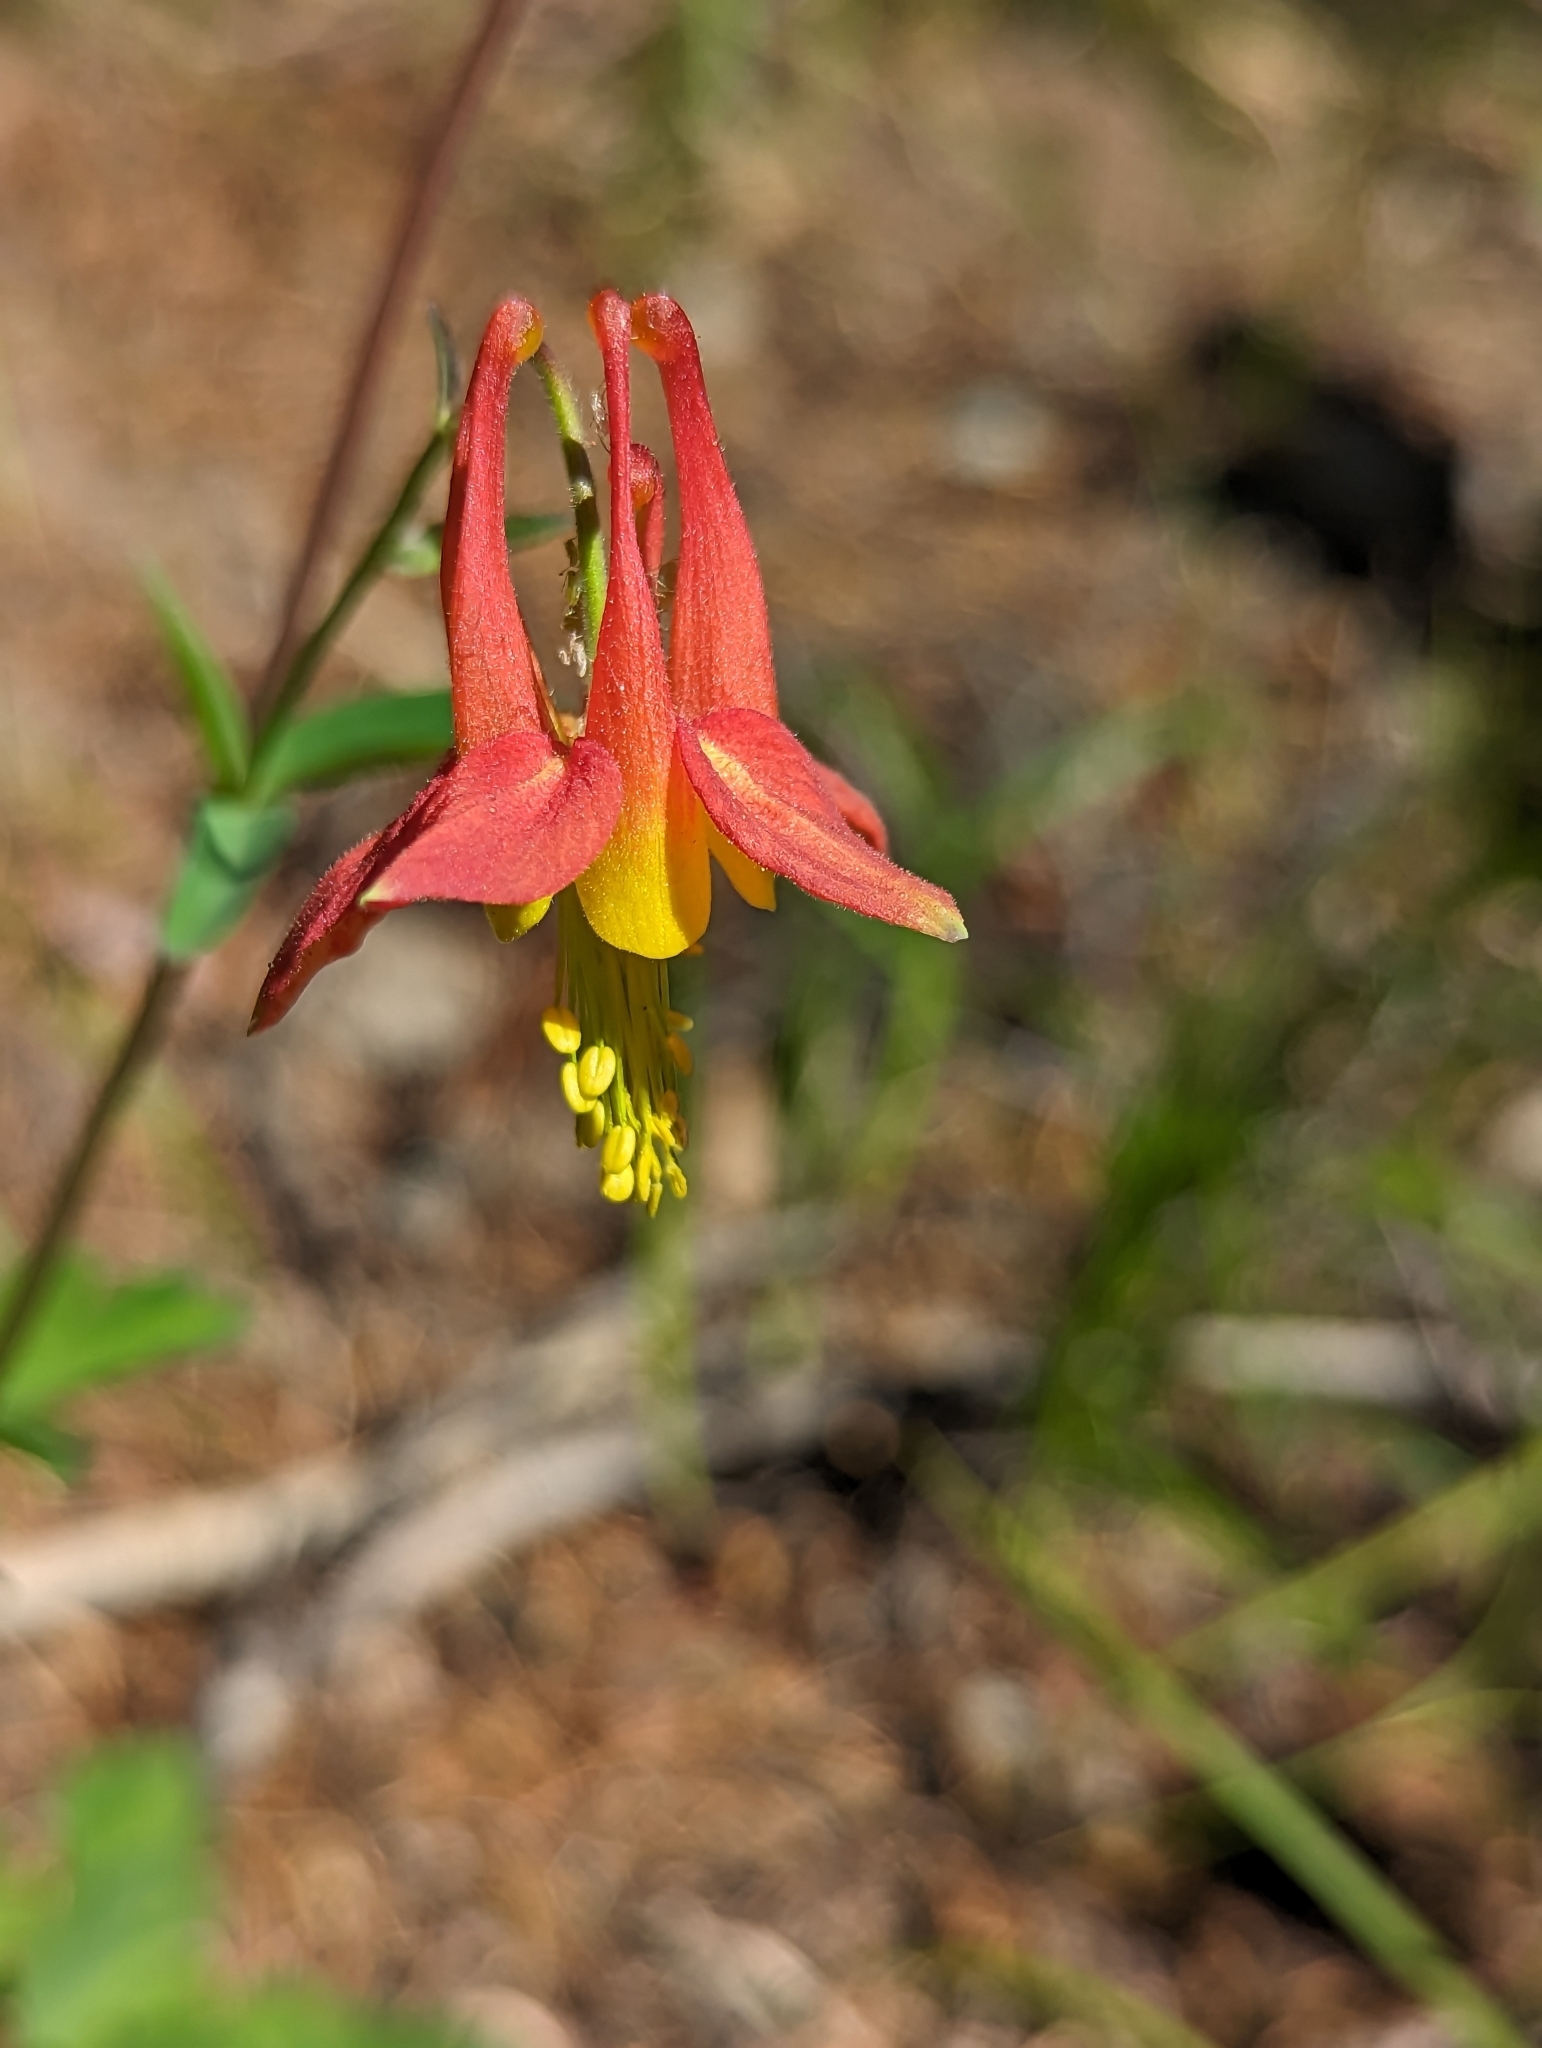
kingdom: Plantae
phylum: Tracheophyta
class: Magnoliopsida
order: Ranunculales
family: Ranunculaceae
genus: Aquilegia
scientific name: Aquilegia formosa
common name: Sitka columbine
